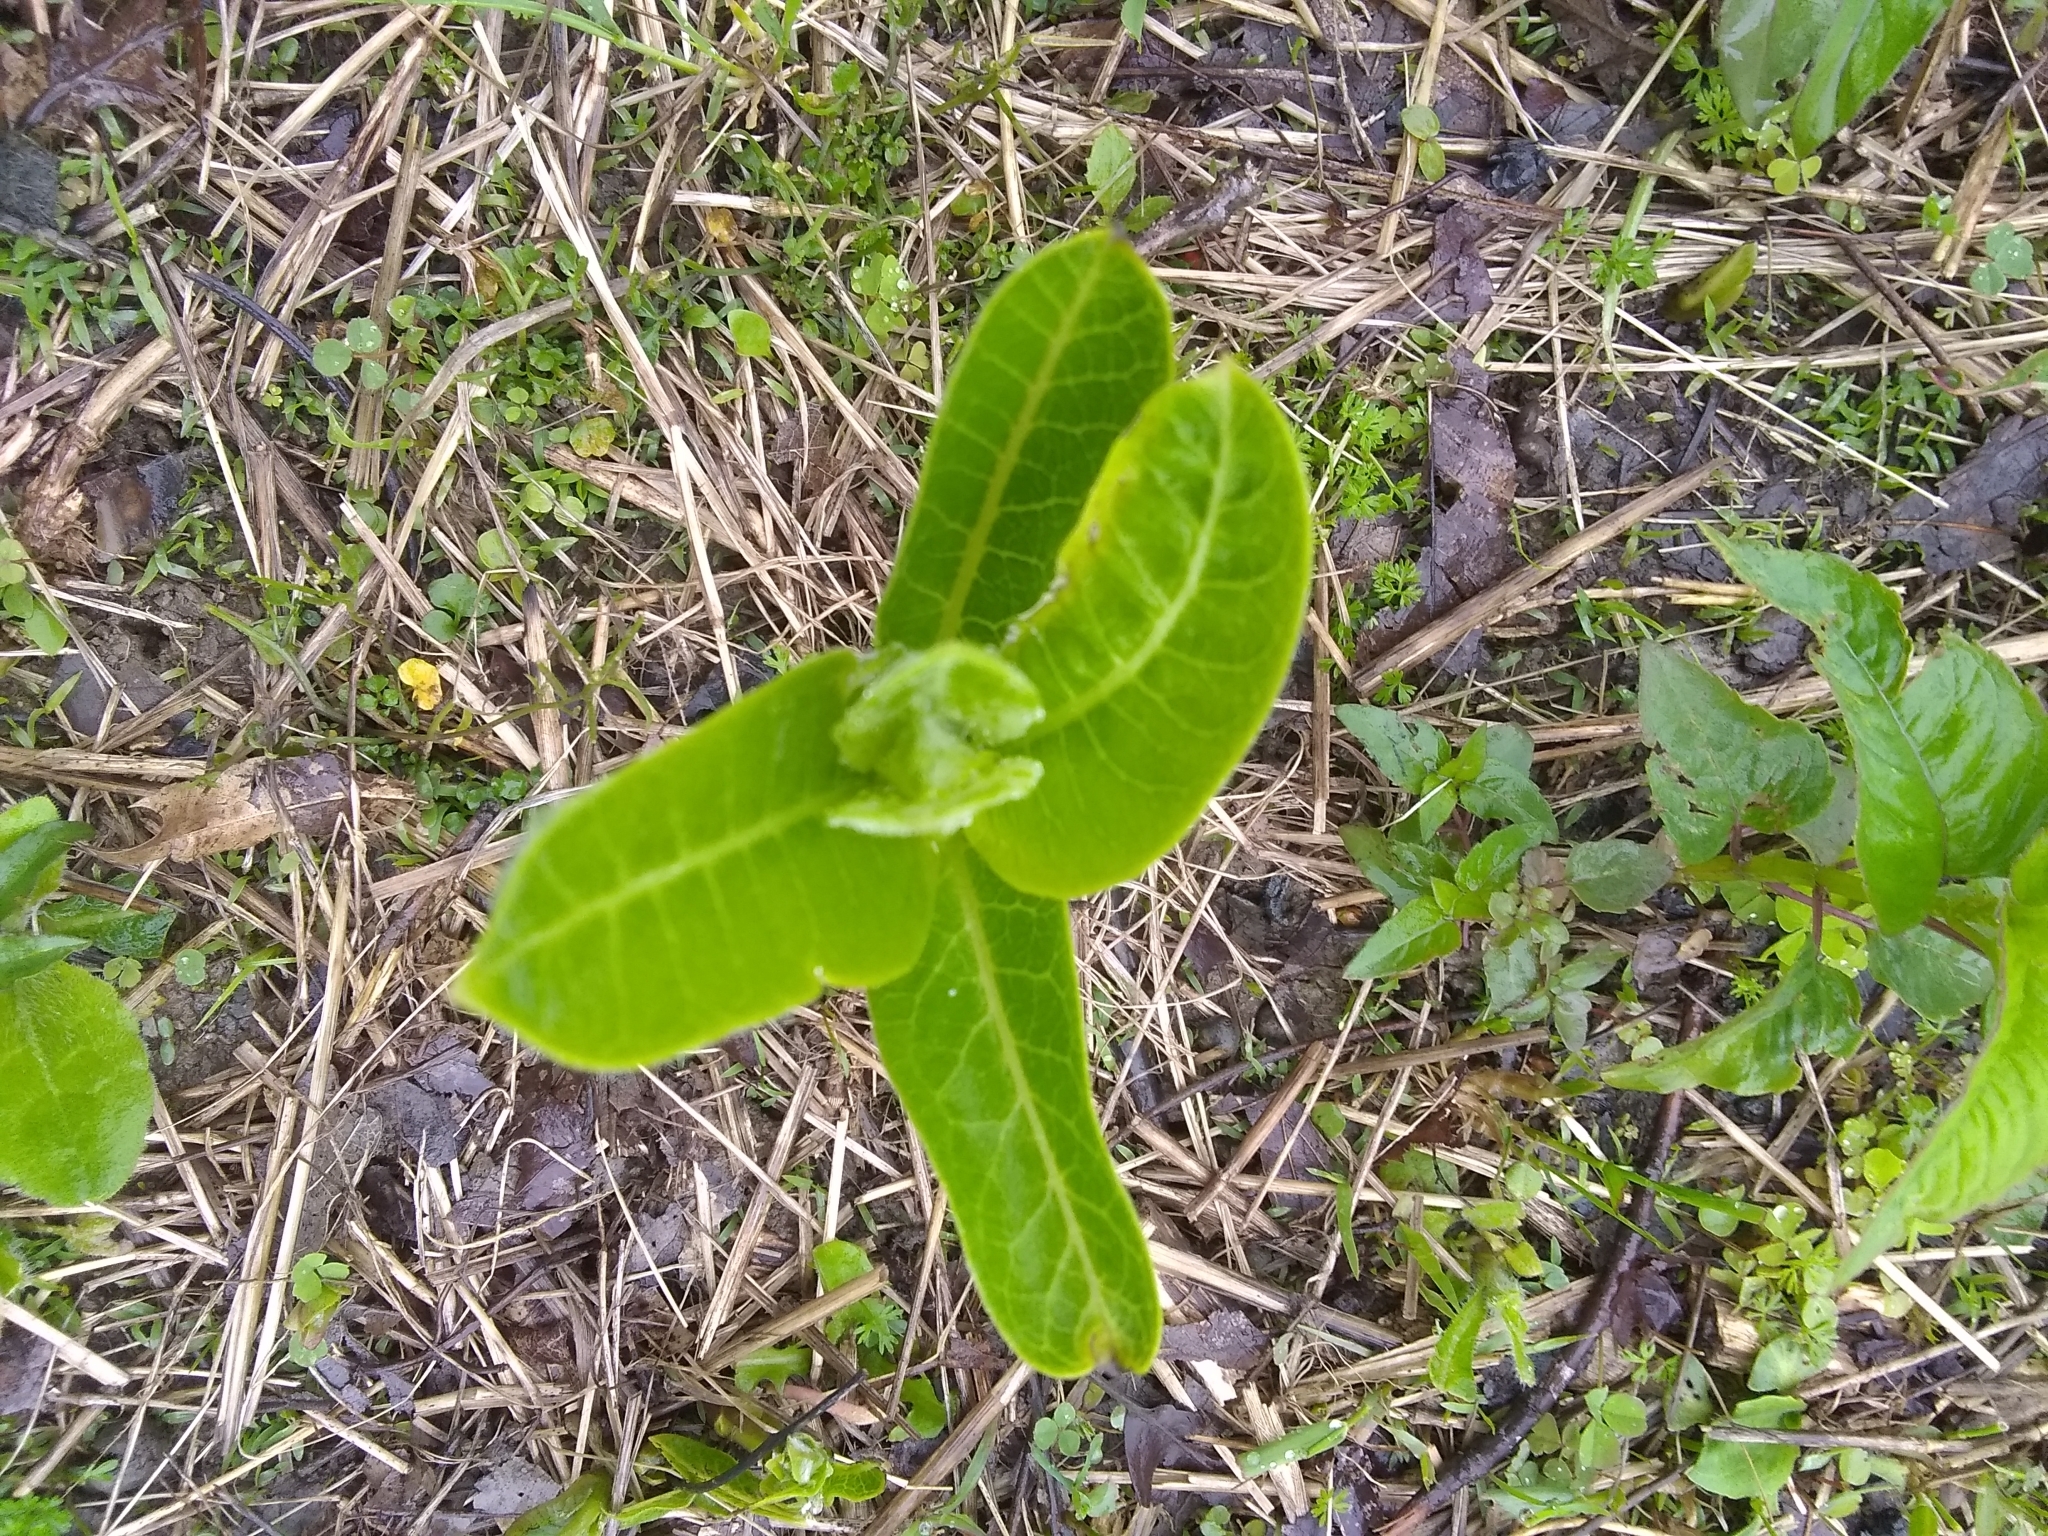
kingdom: Plantae
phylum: Tracheophyta
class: Magnoliopsida
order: Gentianales
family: Apocynaceae
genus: Asclepias
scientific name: Asclepias syriaca
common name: Common milkweed
